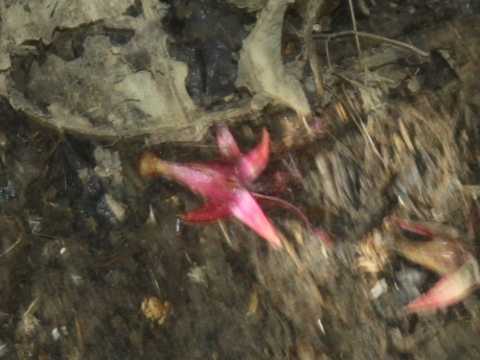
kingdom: Plantae
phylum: Tracheophyta
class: Magnoliopsida
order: Myrtales
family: Onagraceae
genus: Fuchsia
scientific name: Fuchsia excorticata
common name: Tree fuchsia
